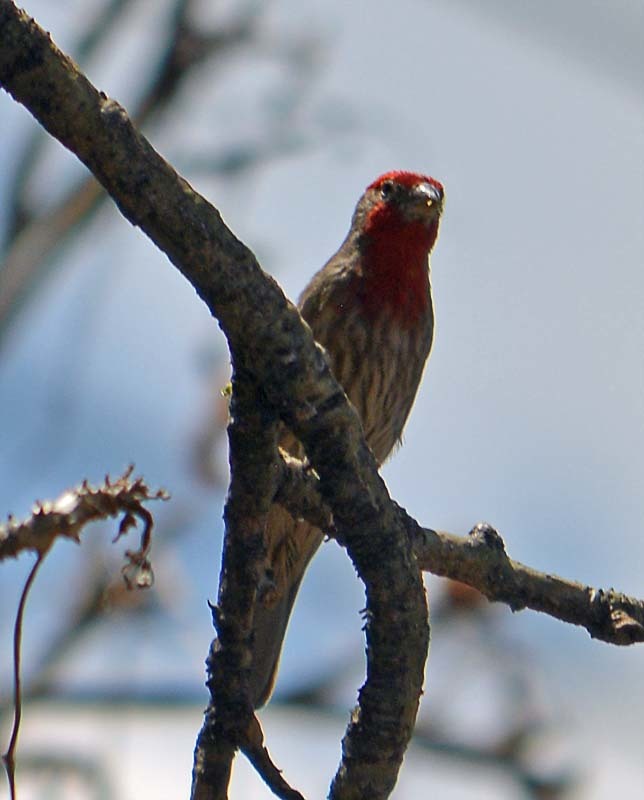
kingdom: Animalia
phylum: Chordata
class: Aves
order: Passeriformes
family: Fringillidae
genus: Haemorhous
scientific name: Haemorhous mexicanus
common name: House finch
